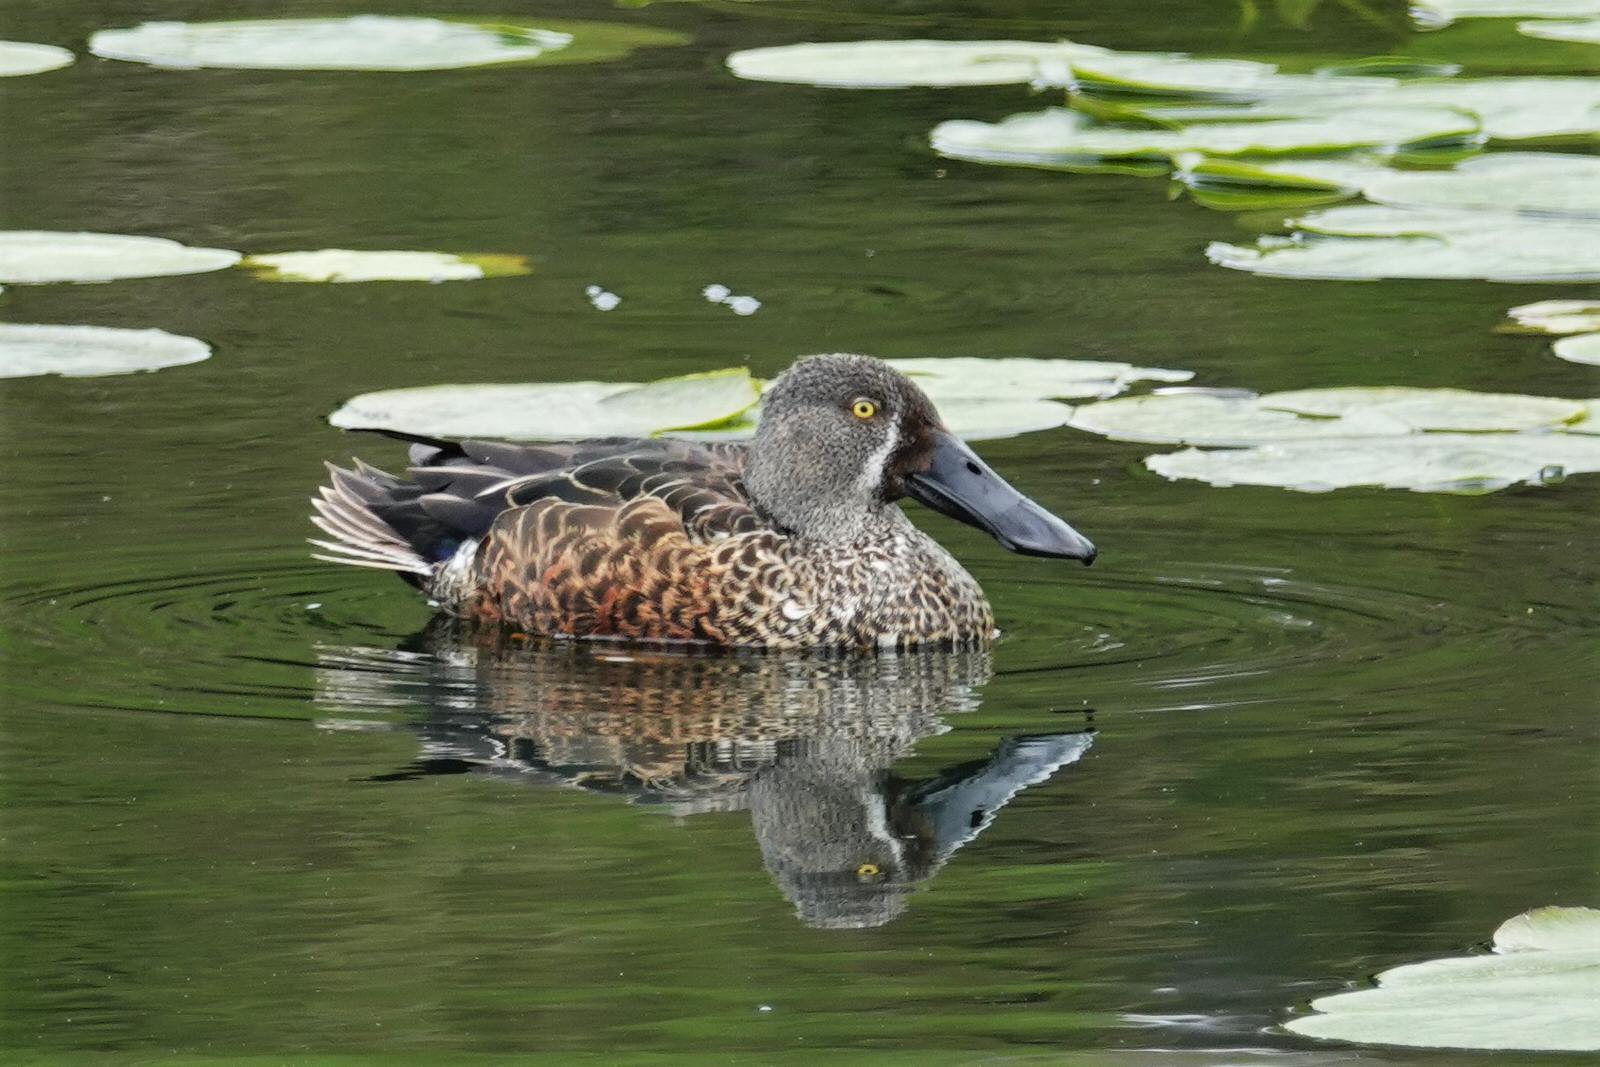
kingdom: Animalia
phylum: Chordata
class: Aves
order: Anseriformes
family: Anatidae
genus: Spatula
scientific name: Spatula rhynchotis
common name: Australian shoveler
